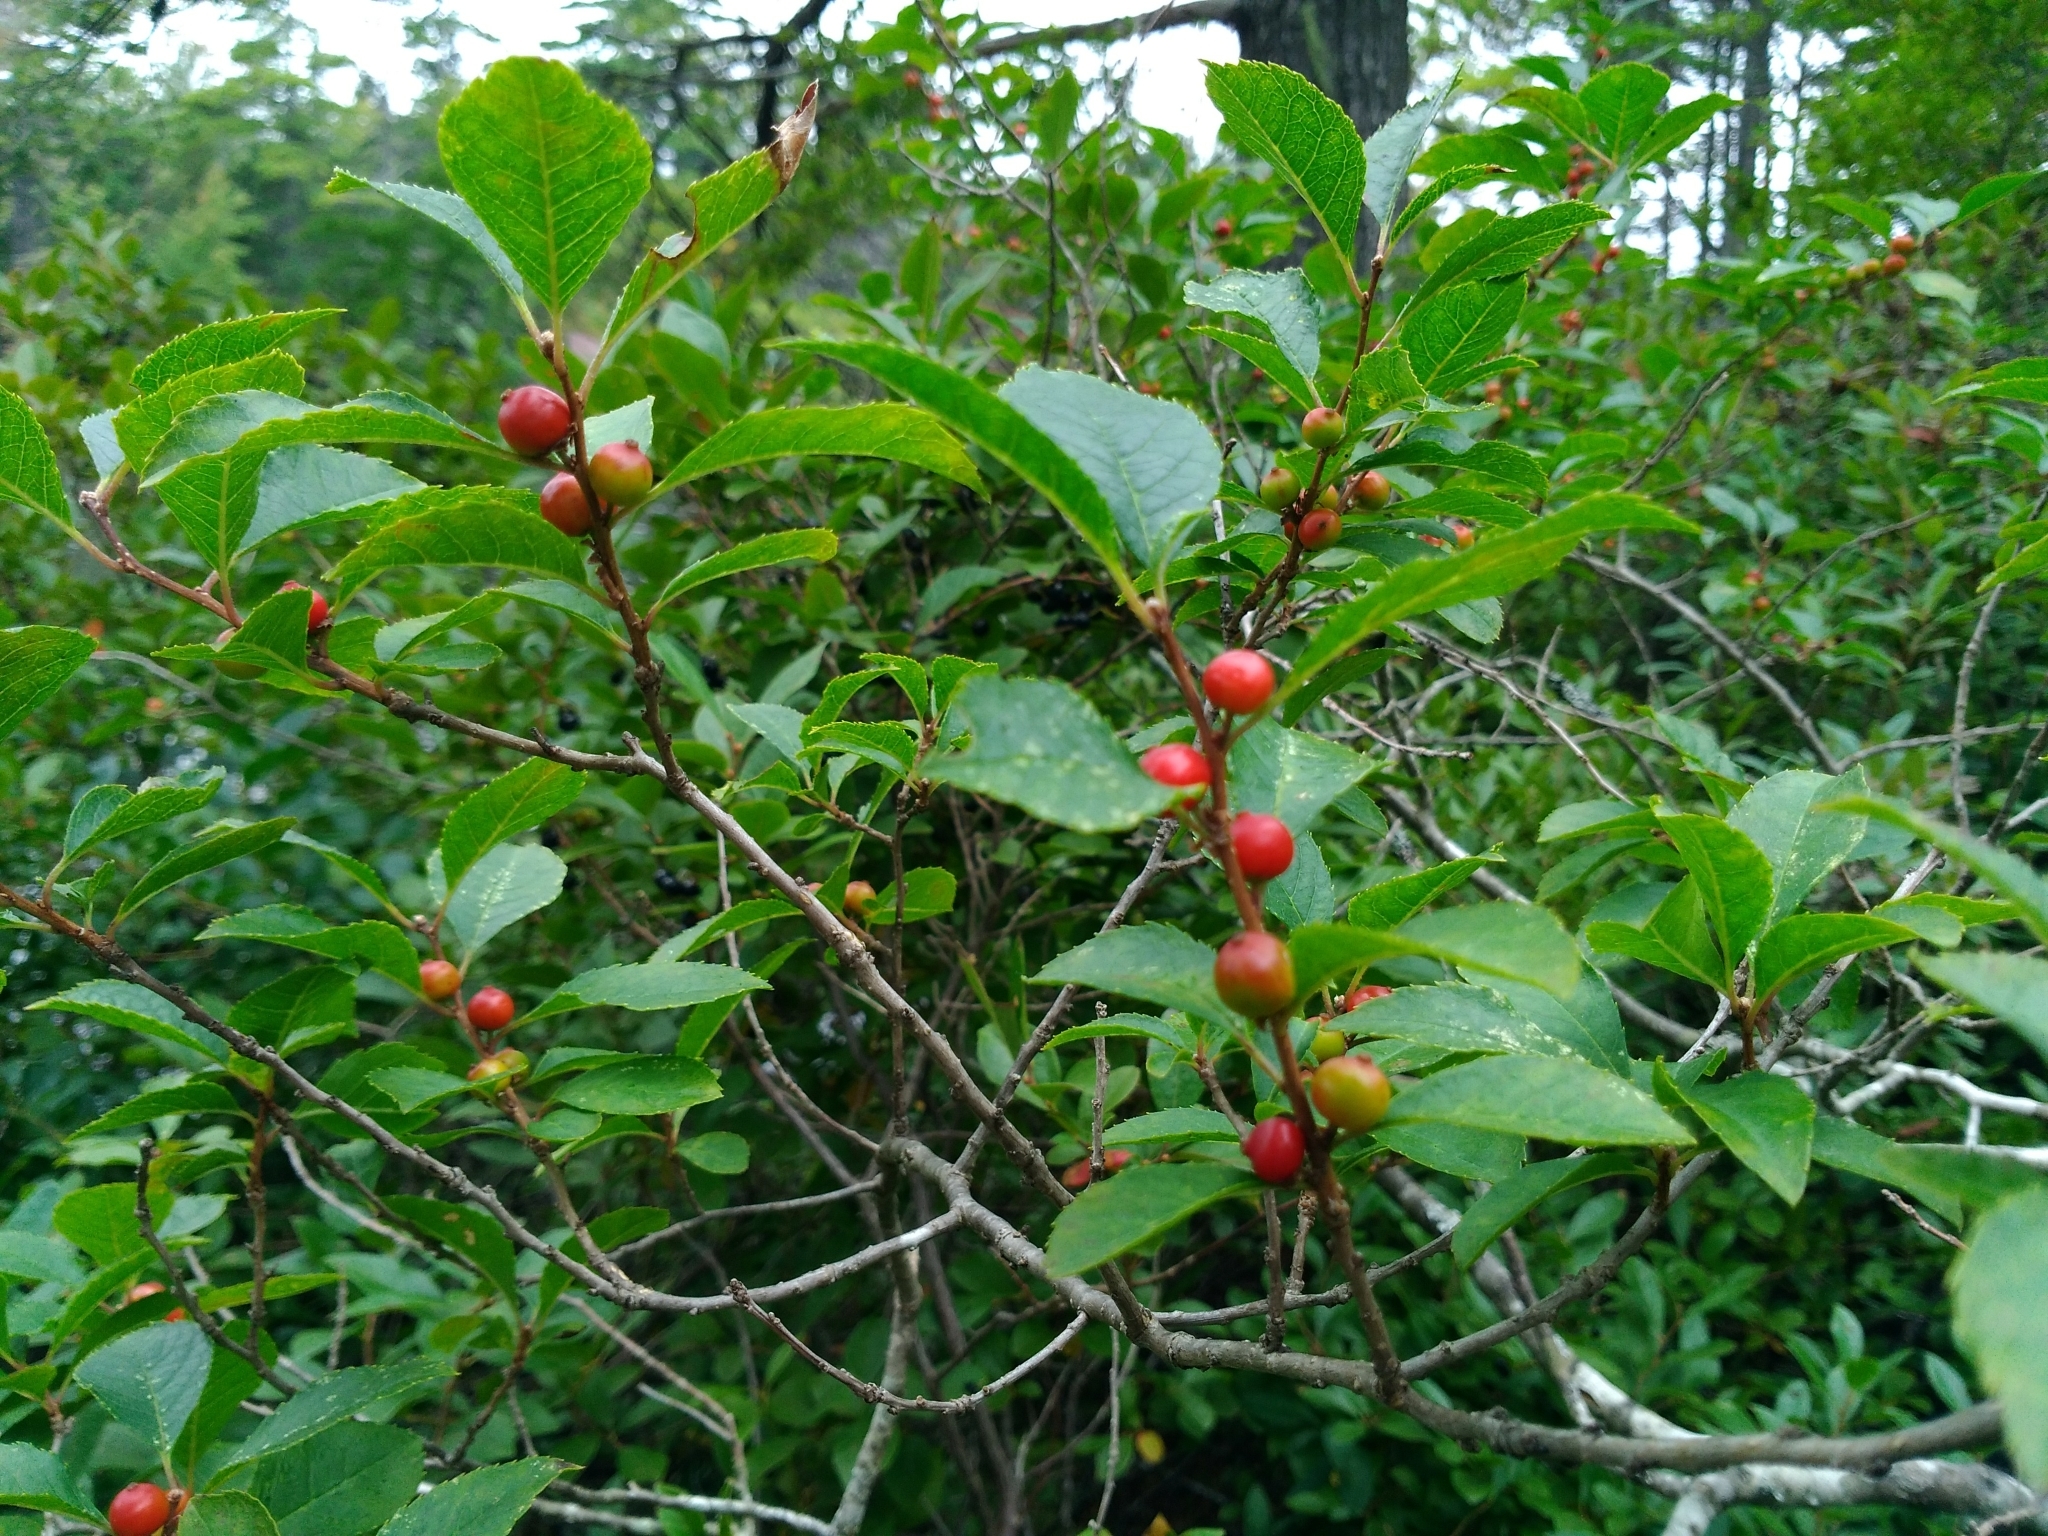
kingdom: Plantae
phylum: Tracheophyta
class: Magnoliopsida
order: Aquifoliales
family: Aquifoliaceae
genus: Ilex
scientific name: Ilex verticillata
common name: Virginia winterberry
